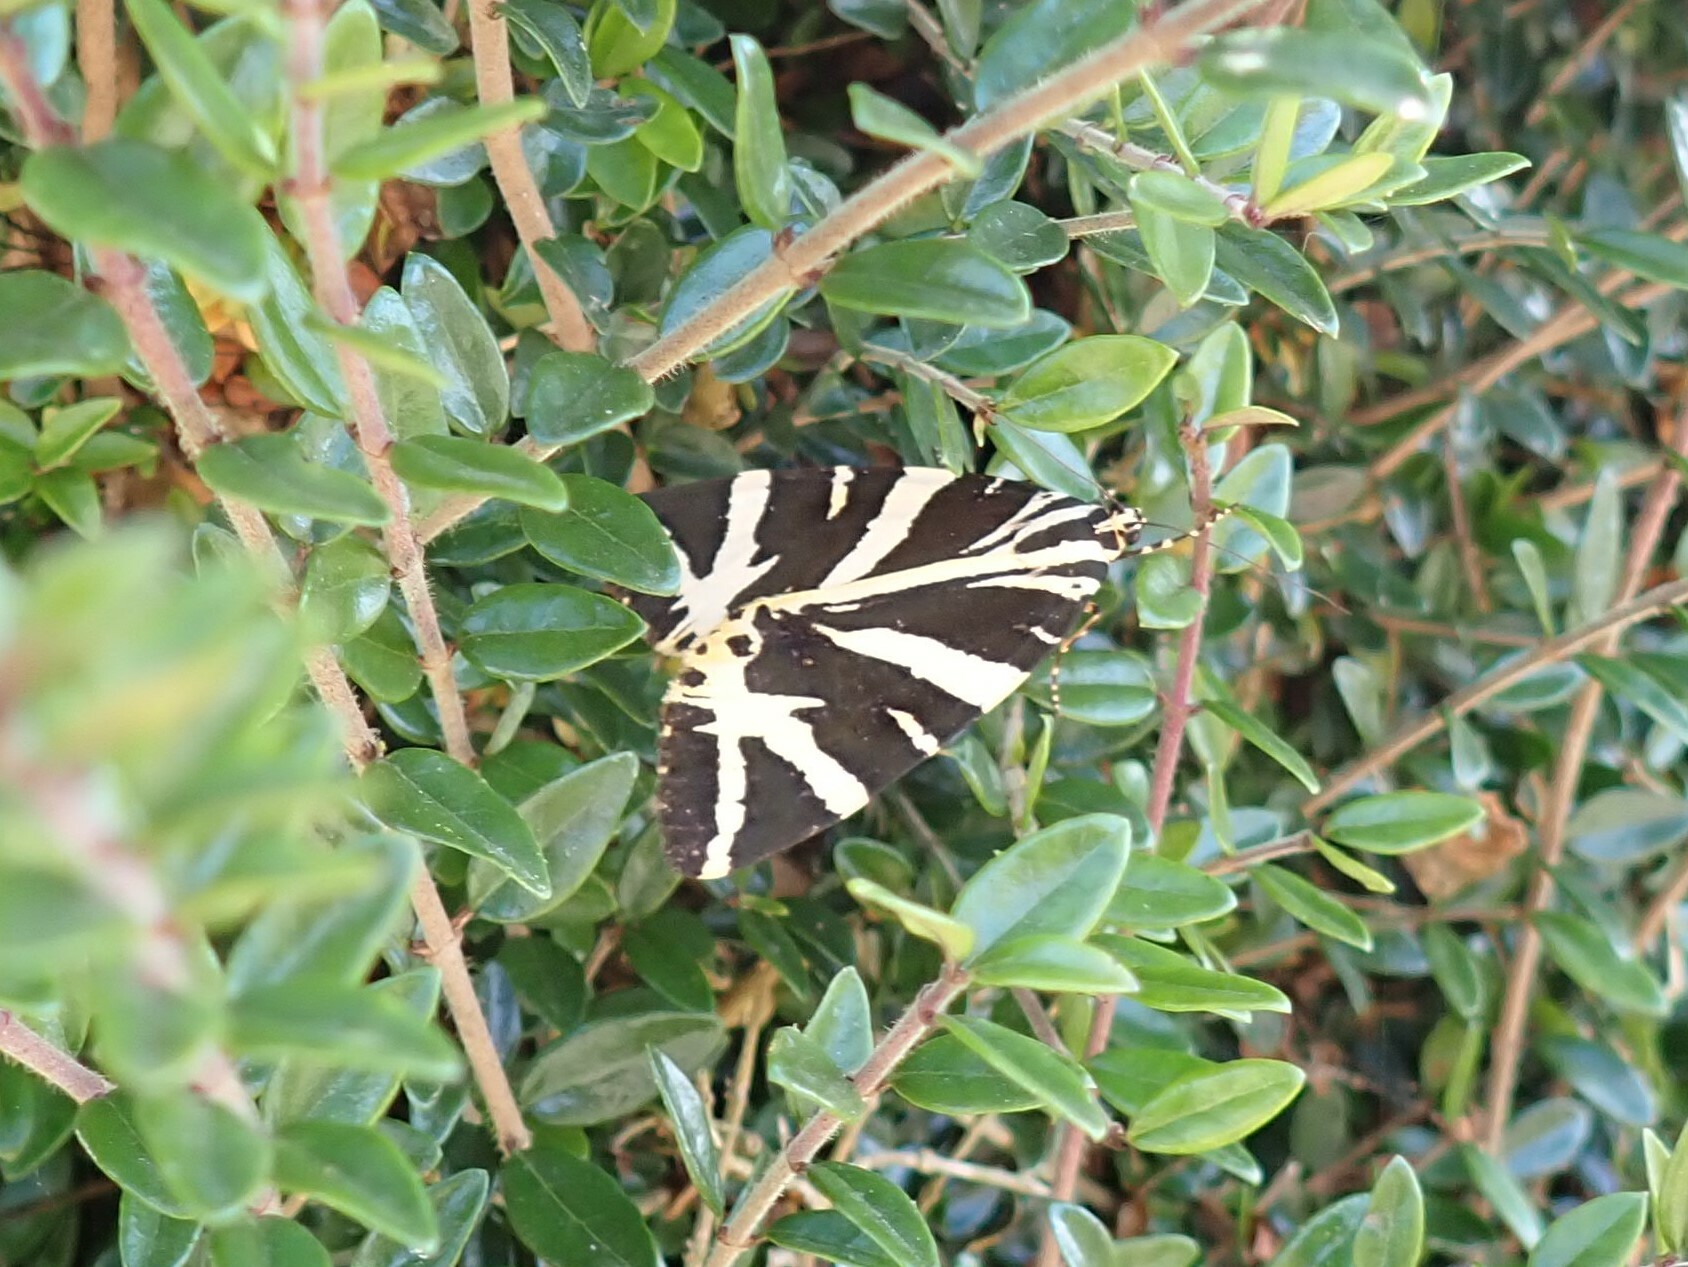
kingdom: Animalia
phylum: Arthropoda
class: Insecta
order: Lepidoptera
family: Erebidae
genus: Euplagia
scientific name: Euplagia quadripunctaria
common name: Jersey tiger
